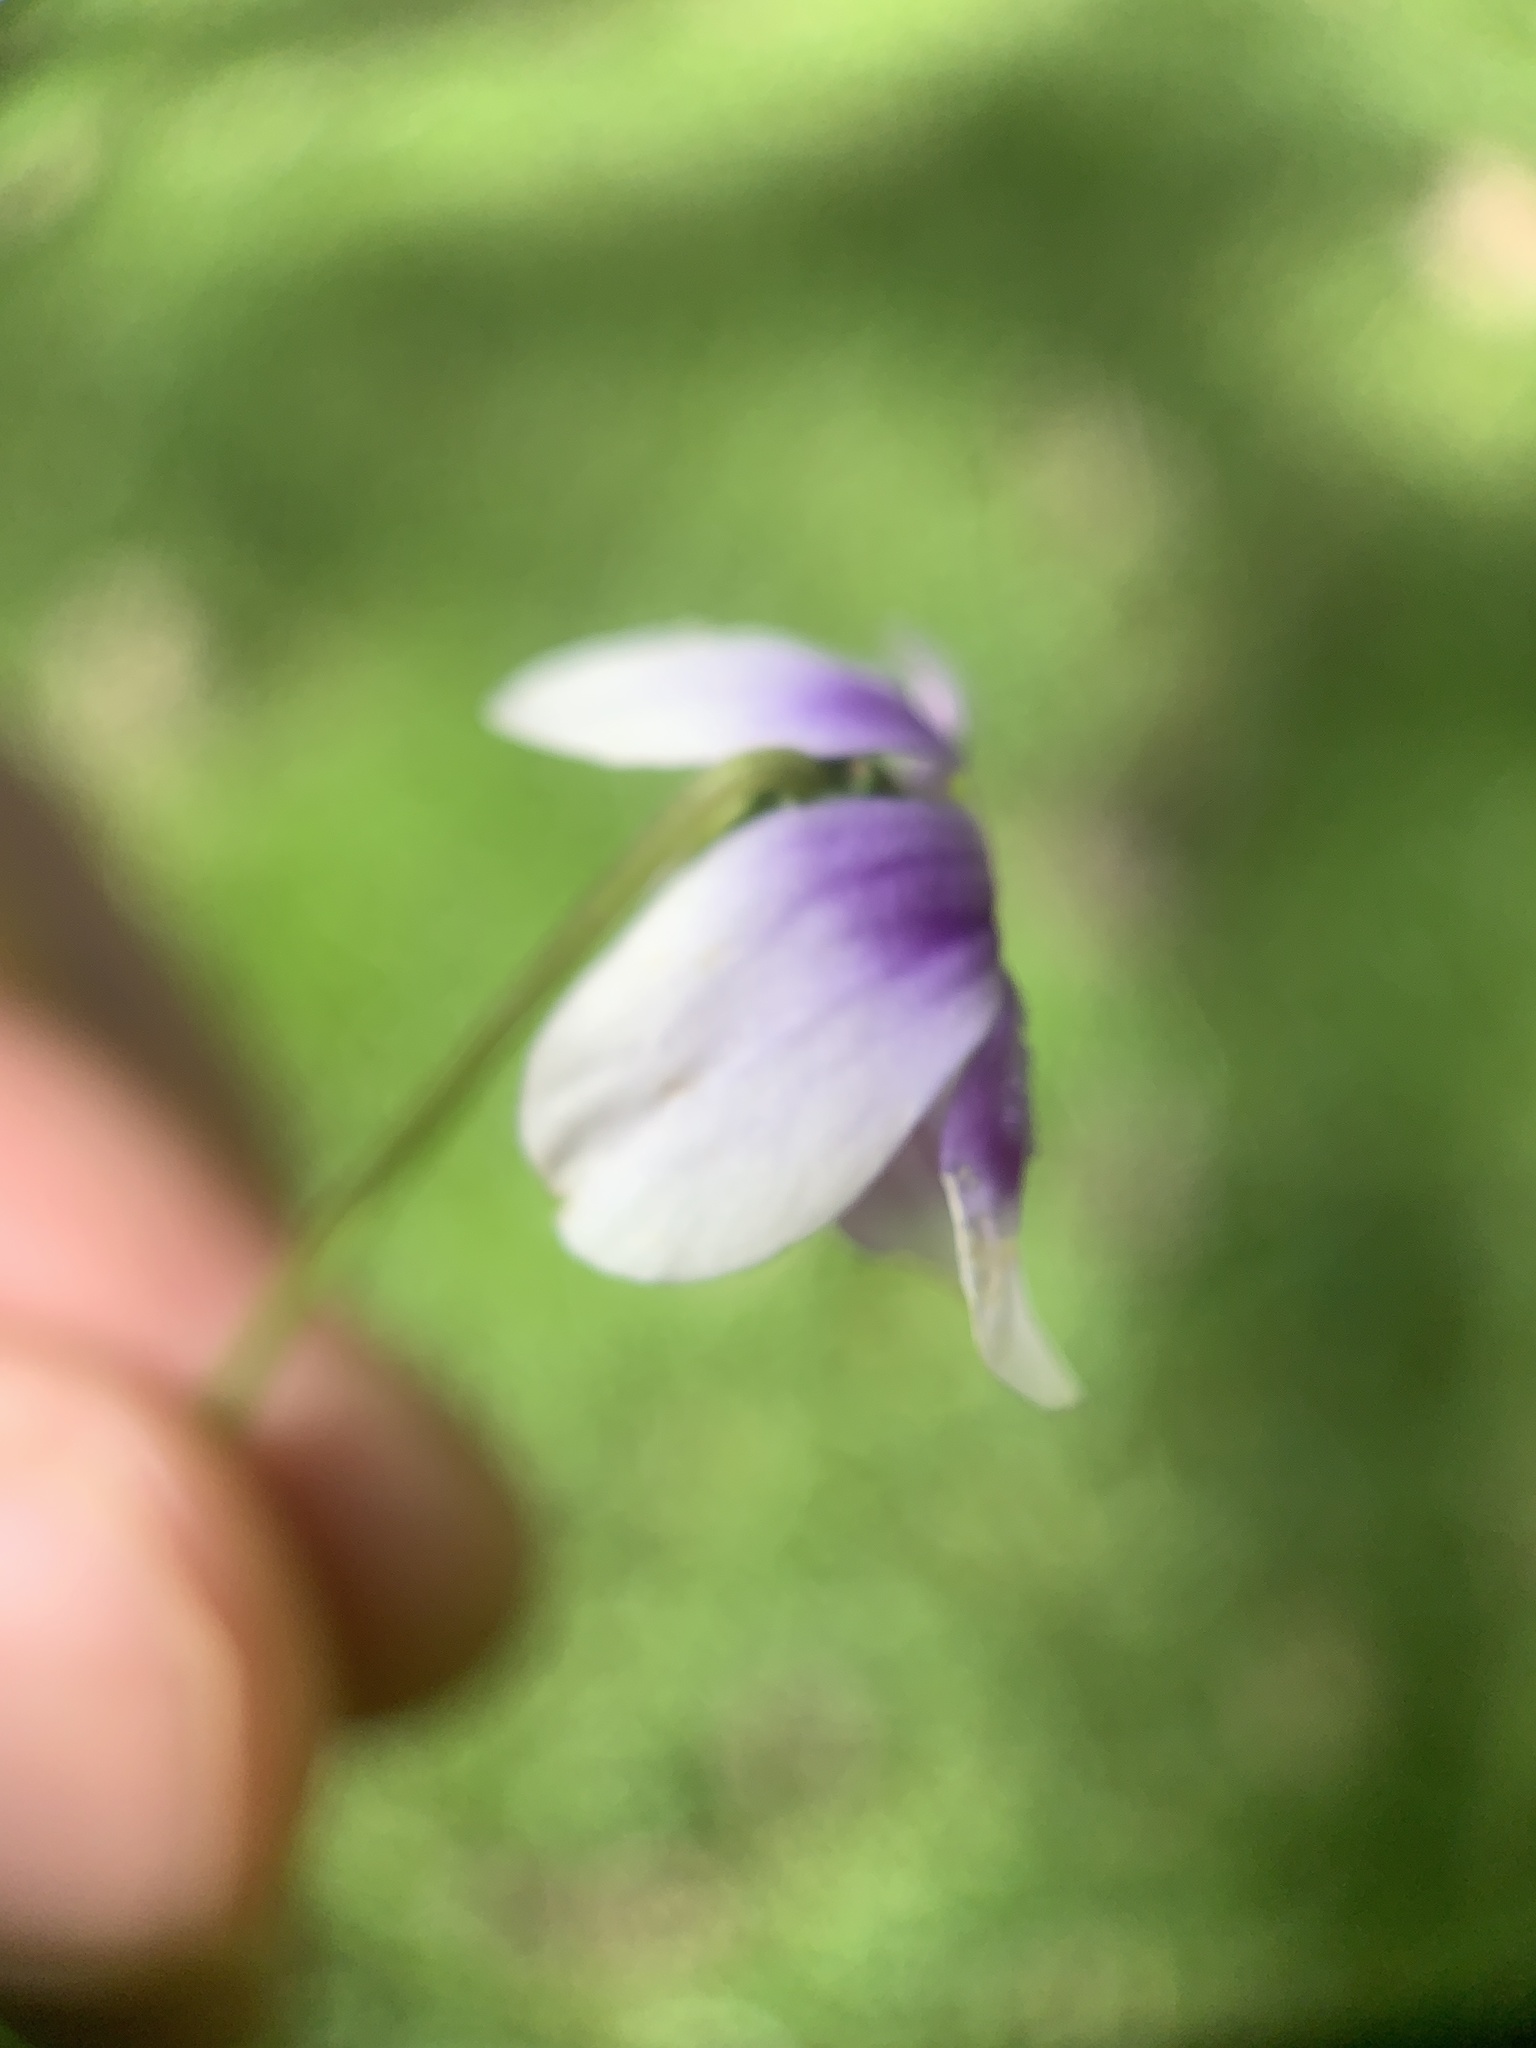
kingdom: Plantae
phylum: Tracheophyta
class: Magnoliopsida
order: Malpighiales
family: Violaceae
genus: Viola
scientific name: Viola banksii
